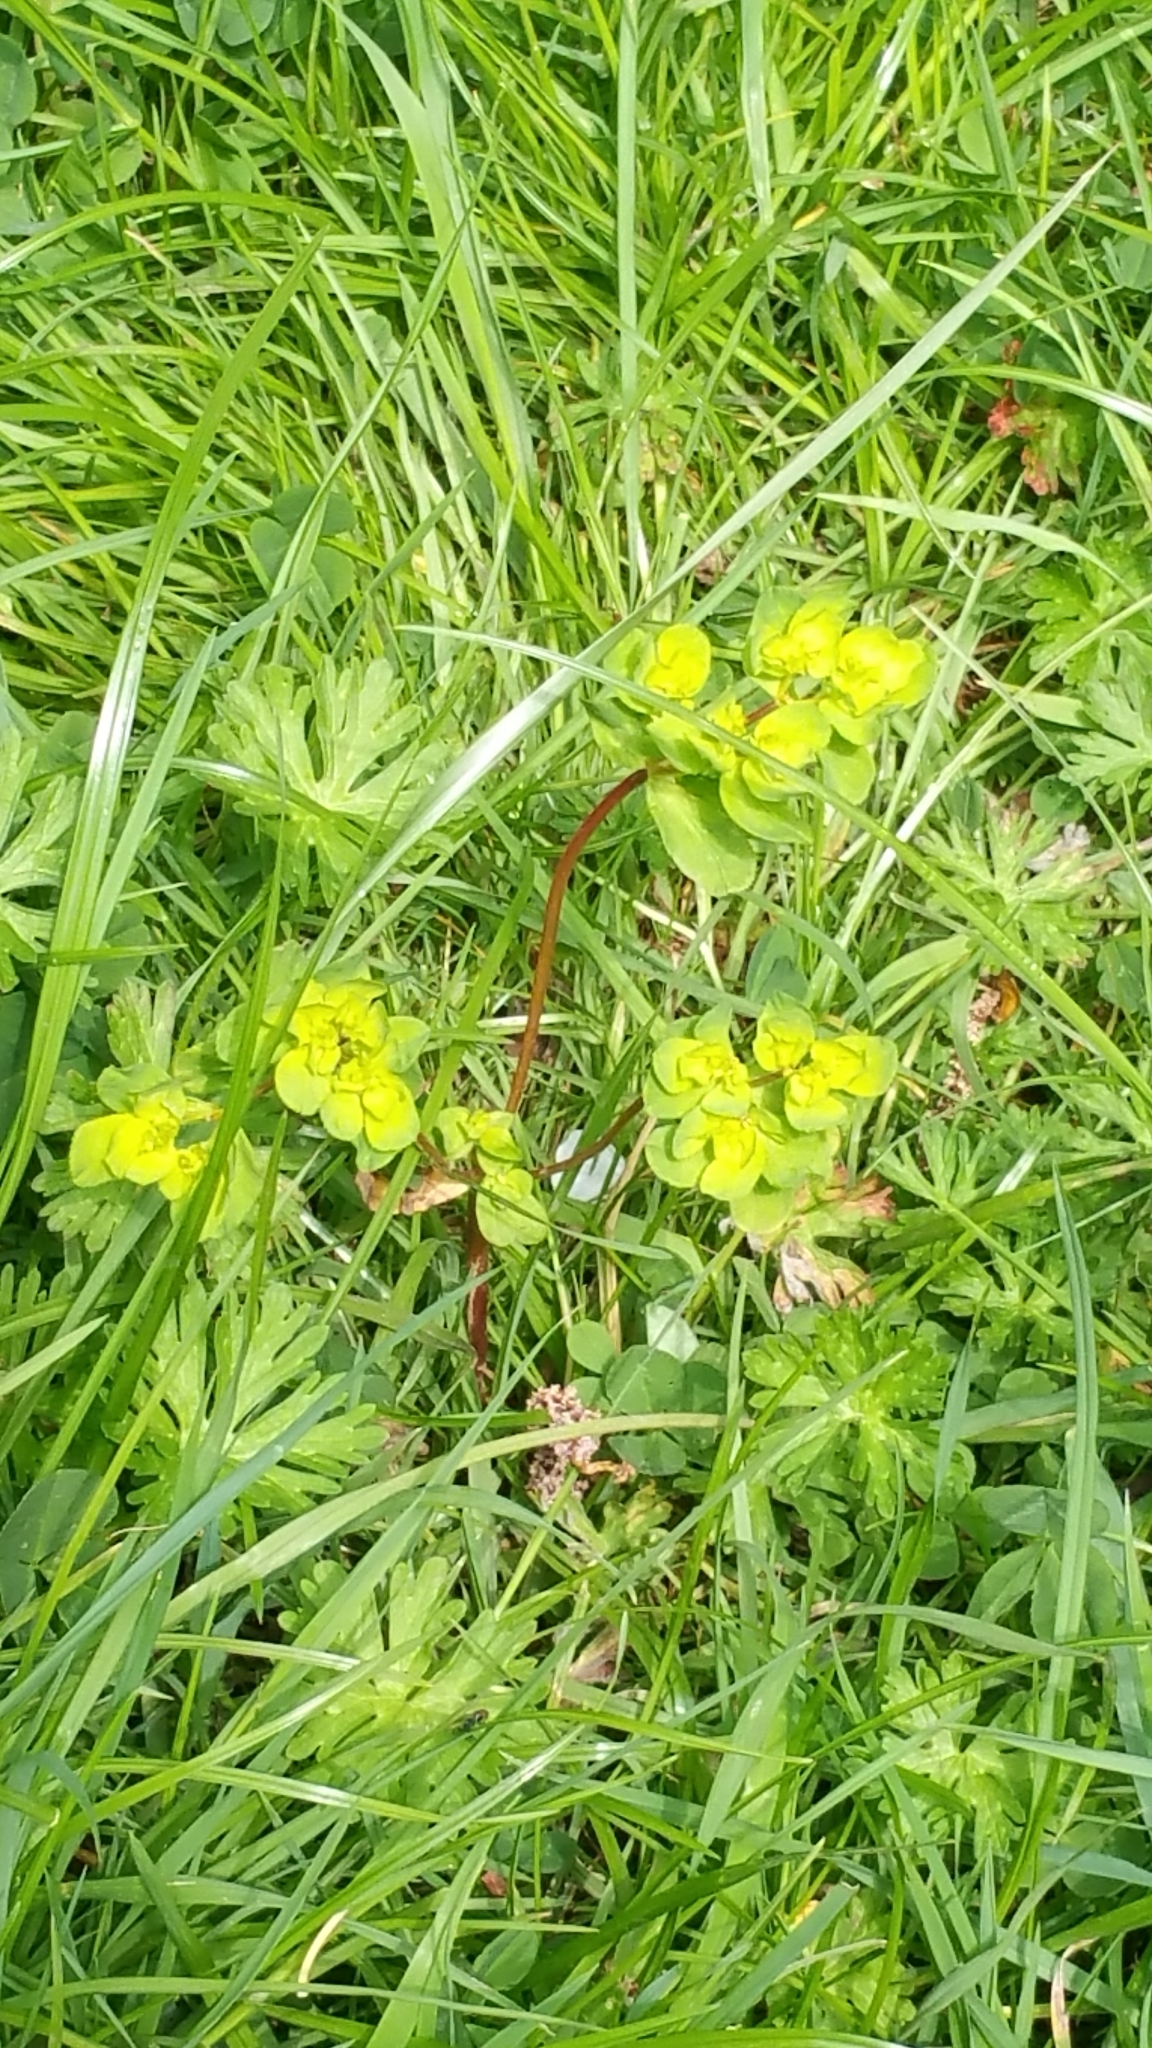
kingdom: Plantae
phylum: Tracheophyta
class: Magnoliopsida
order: Malpighiales
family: Euphorbiaceae
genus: Euphorbia
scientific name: Euphorbia helioscopia
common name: Sun spurge
